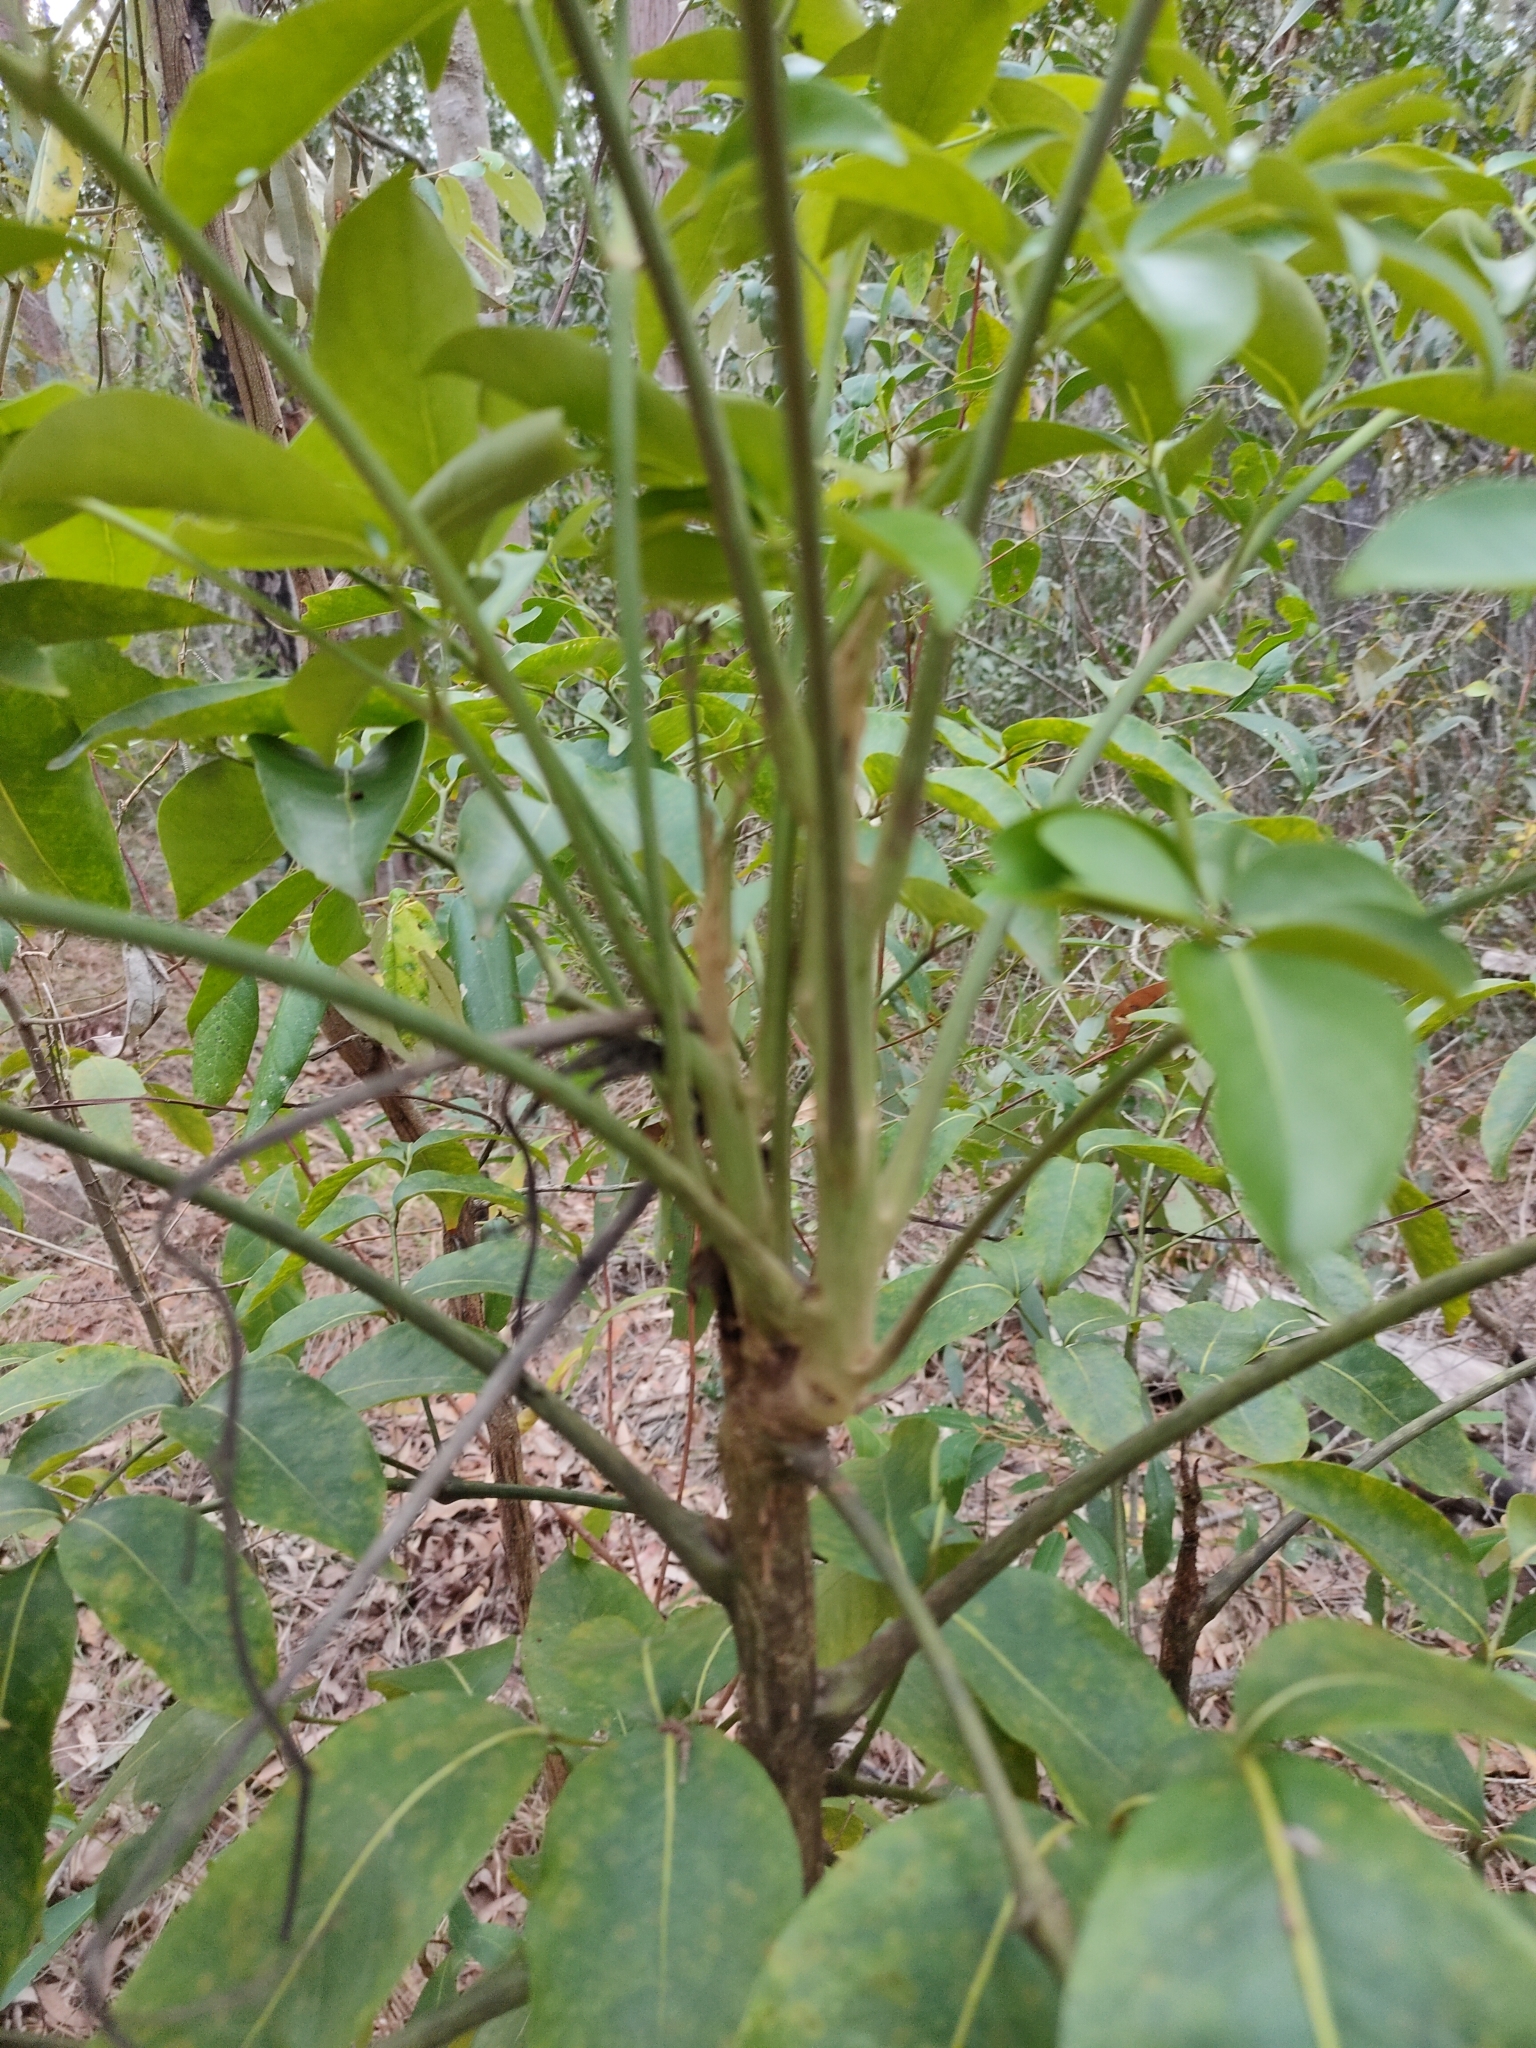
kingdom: Plantae
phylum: Tracheophyta
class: Magnoliopsida
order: Apiales
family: Araliaceae
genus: Polyscias
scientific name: Polyscias elegans
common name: Mowbulan whitewood
